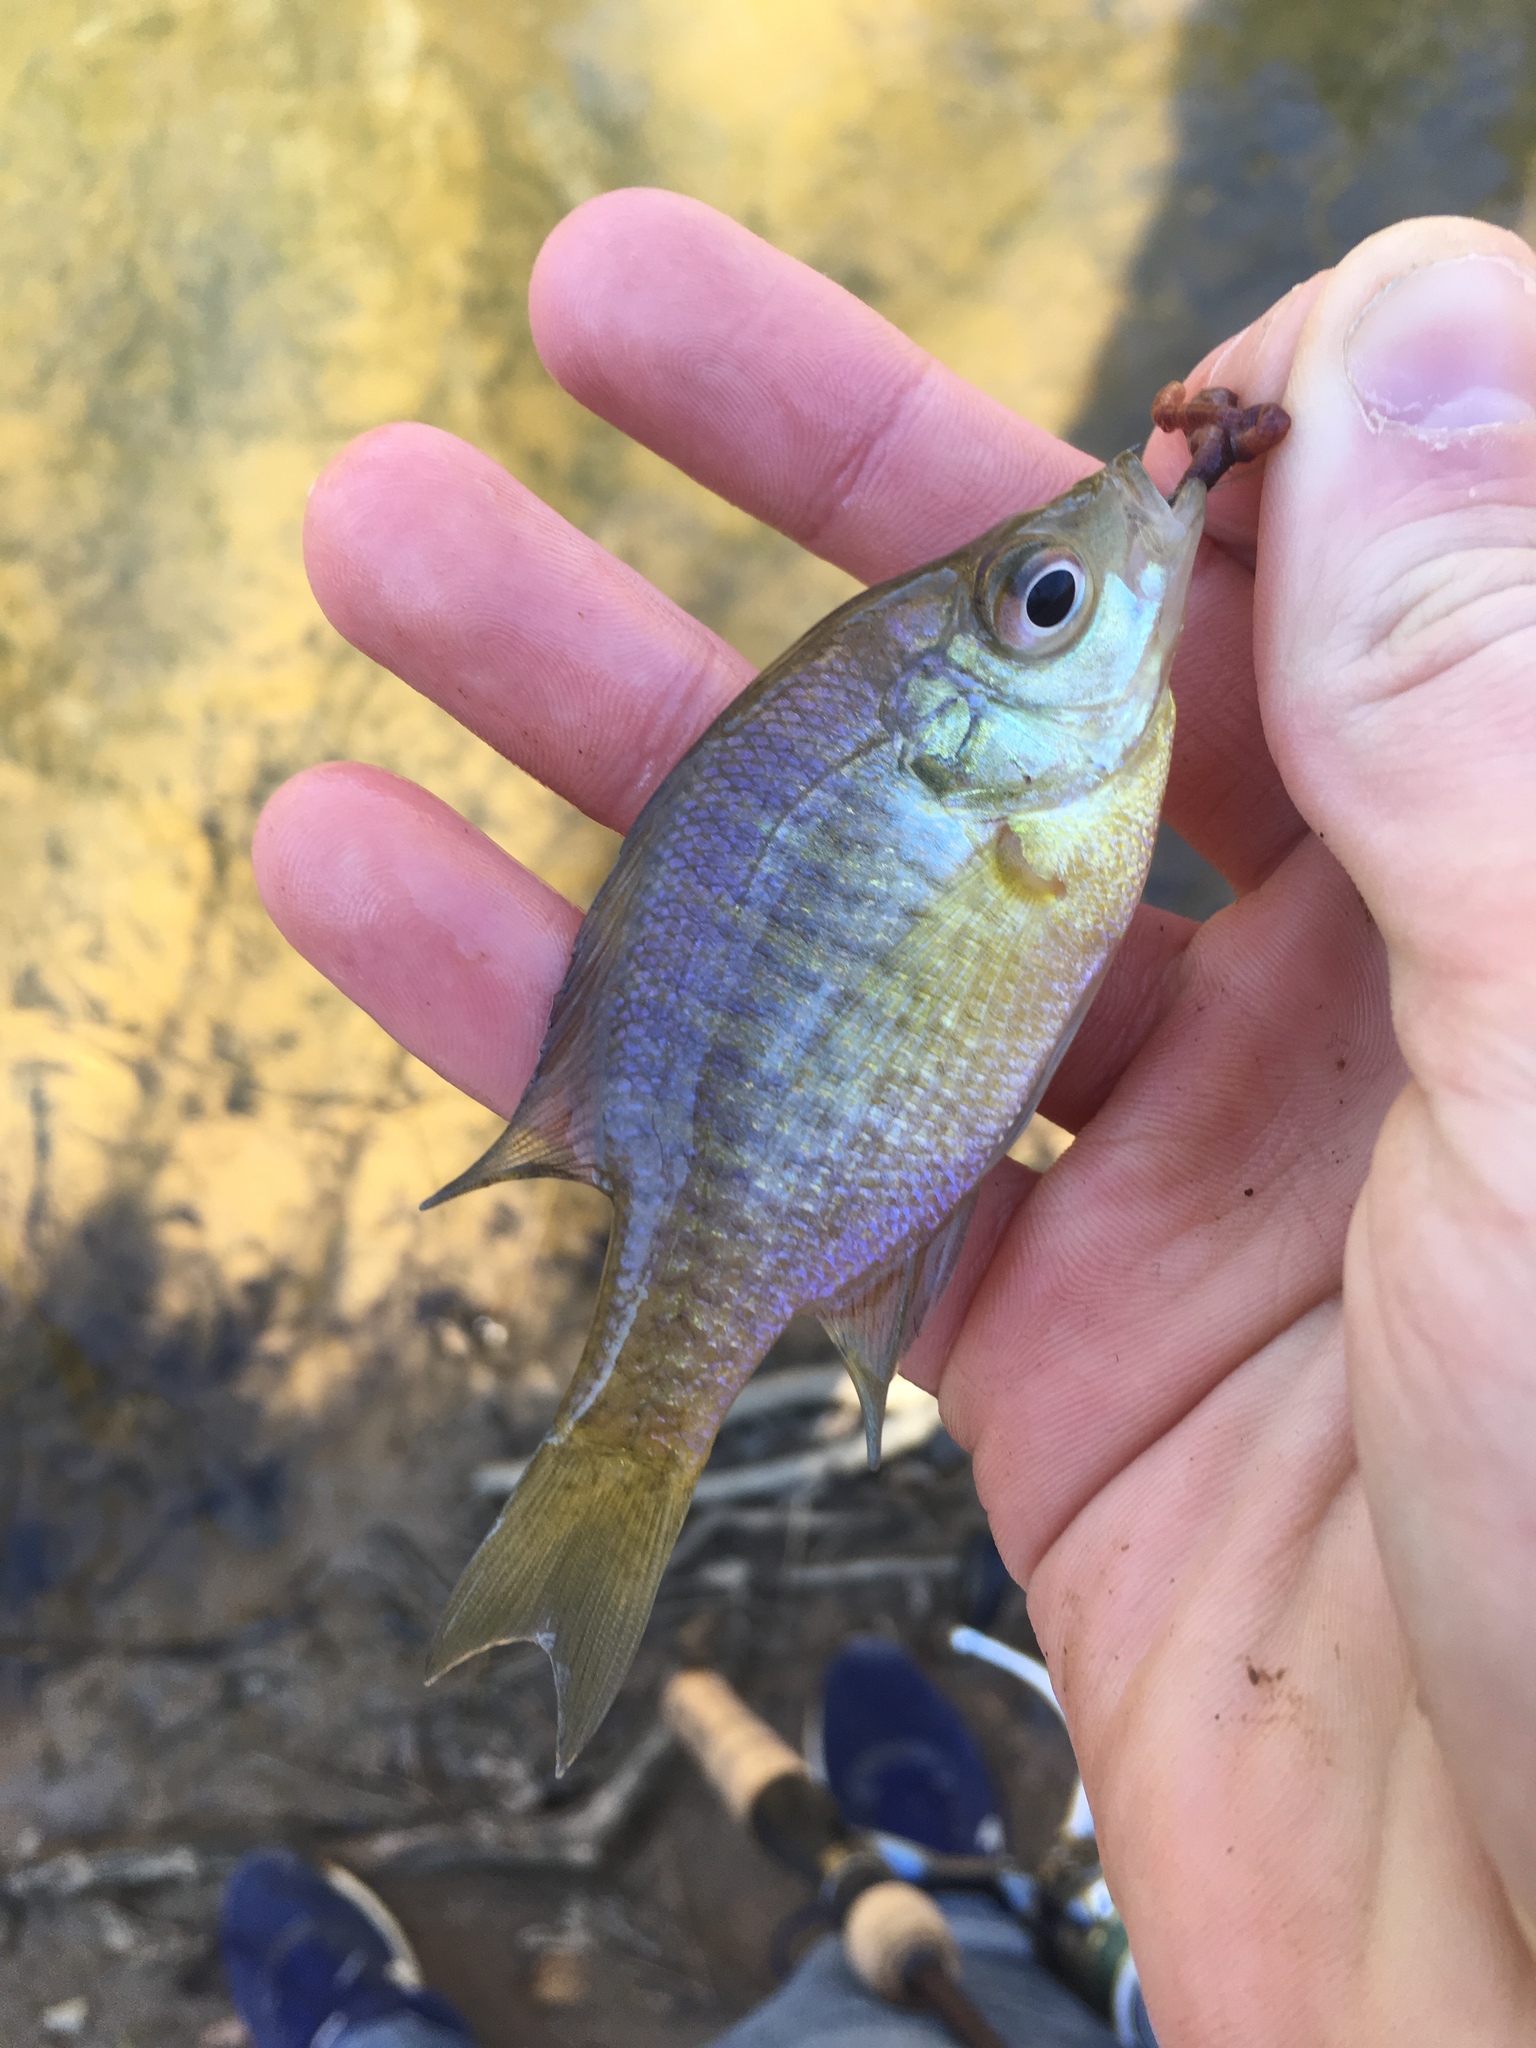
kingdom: Animalia
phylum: Chordata
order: Perciformes
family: Centrarchidae
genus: Lepomis
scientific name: Lepomis macrochirus
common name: Bluegill
